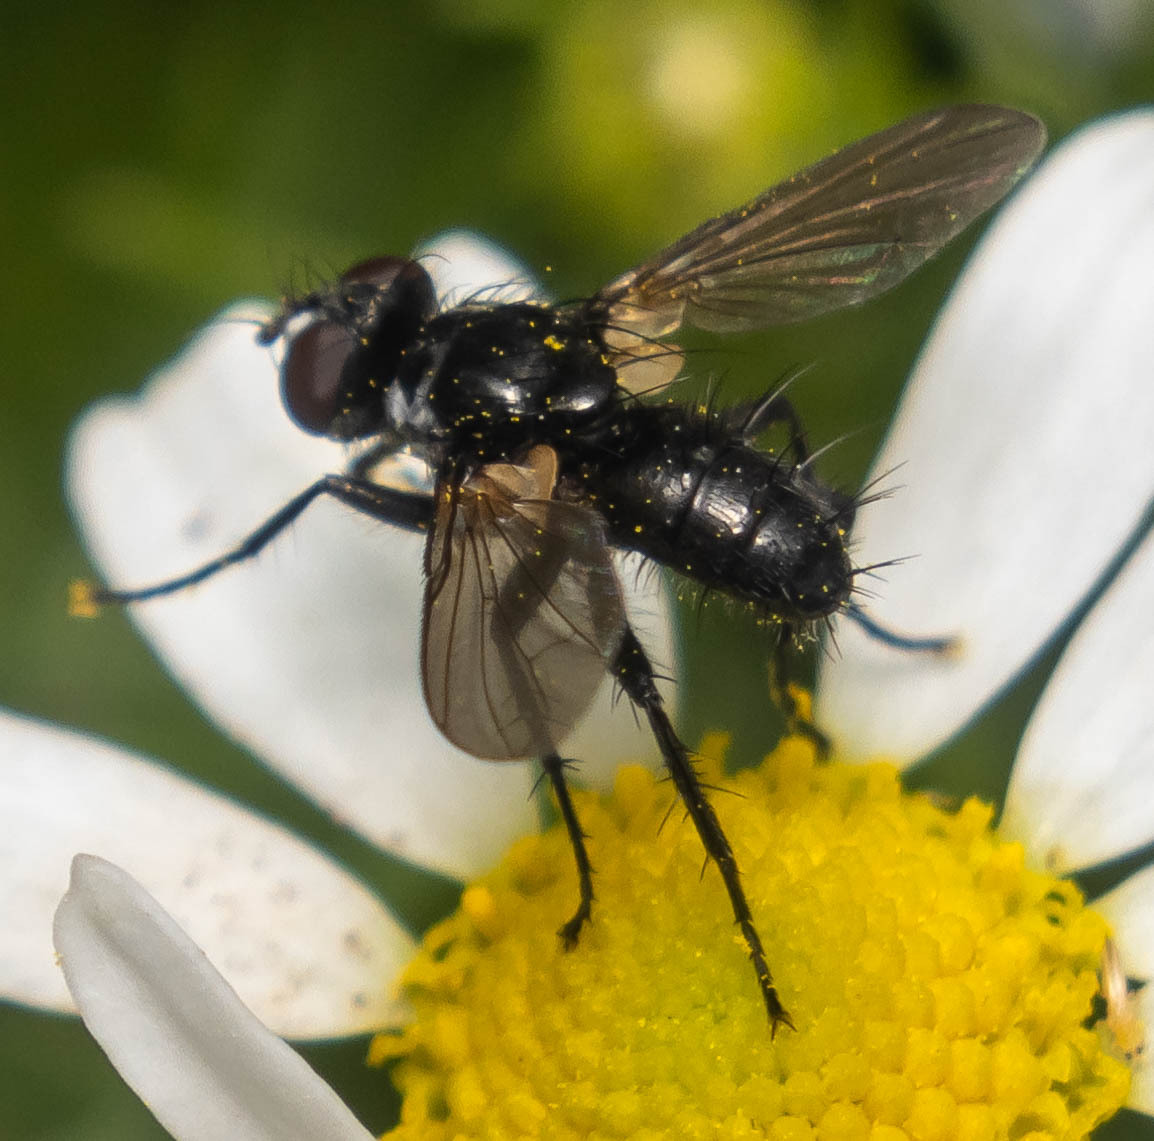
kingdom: Animalia
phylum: Arthropoda
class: Insecta
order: Diptera
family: Tachinidae
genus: Phania
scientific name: Phania funesta
